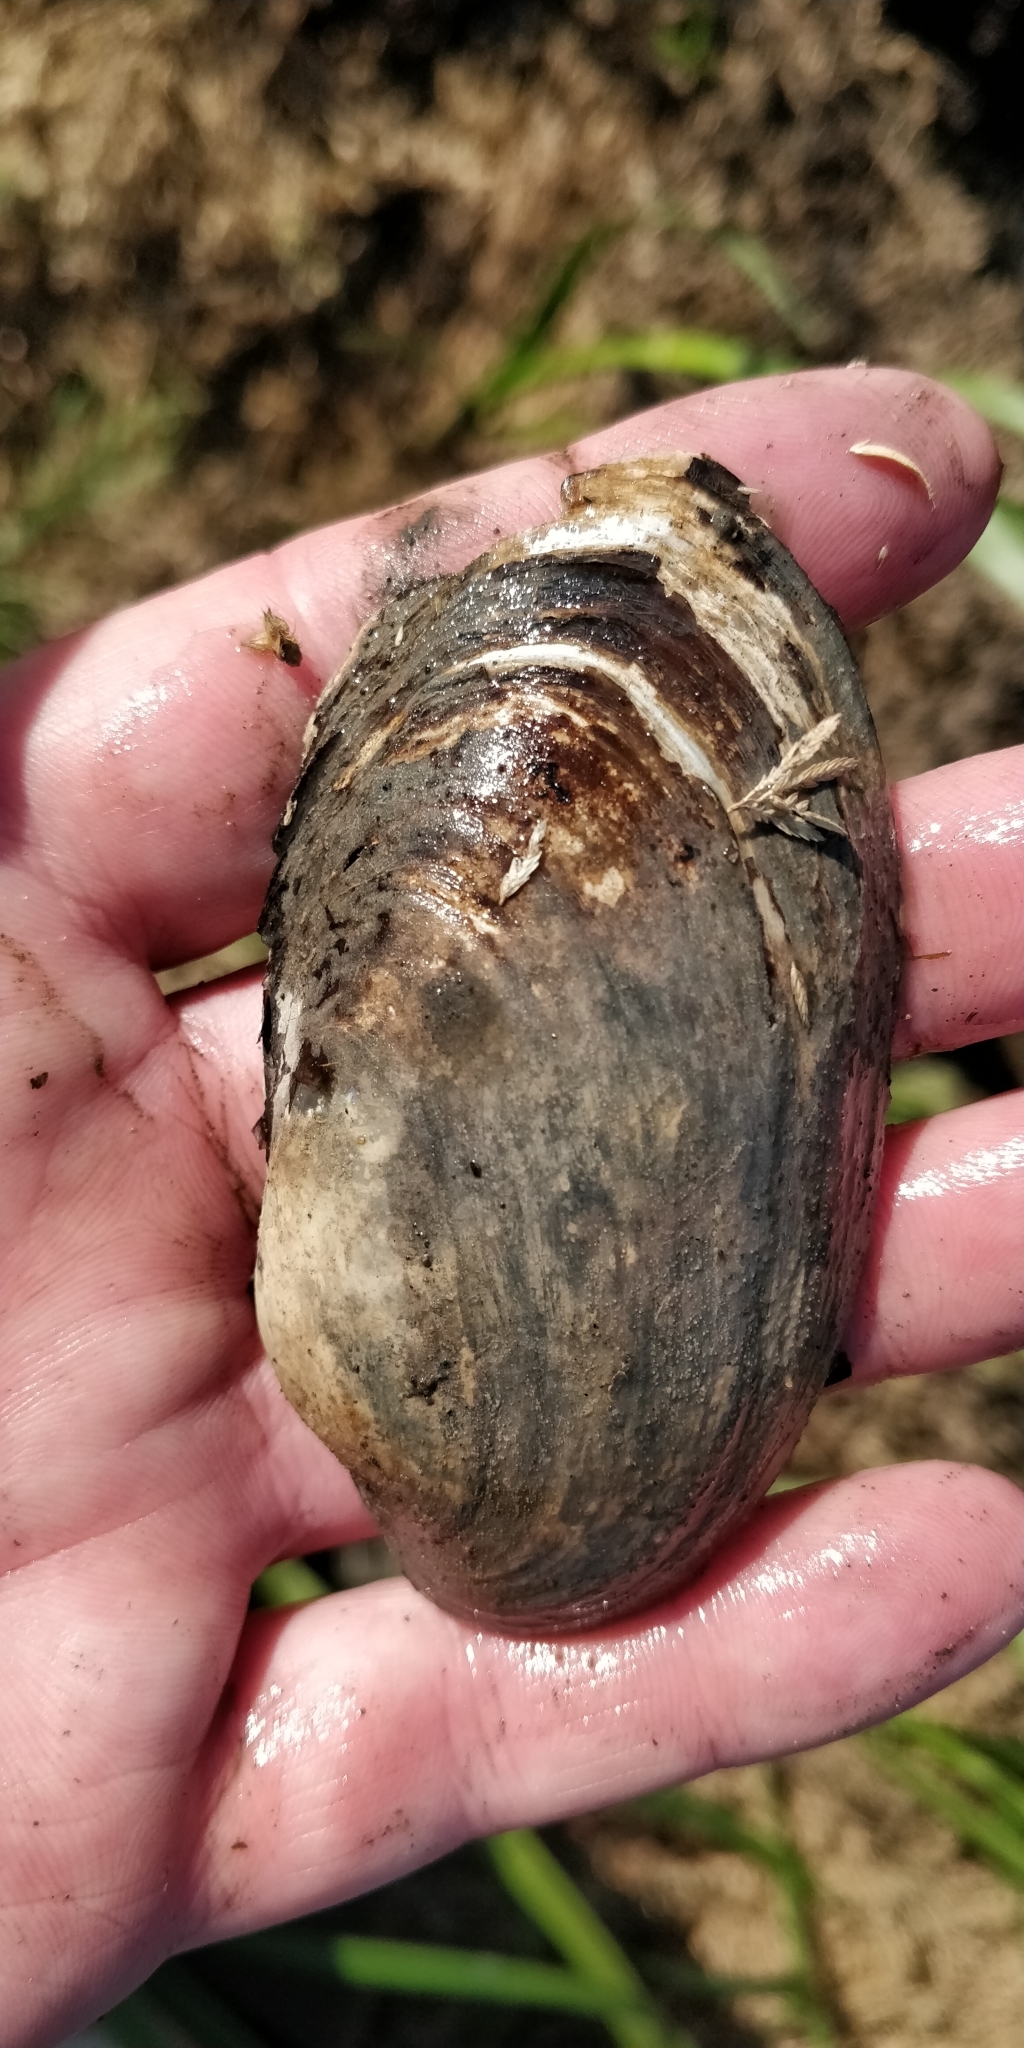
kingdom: Animalia
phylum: Mollusca
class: Bivalvia
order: Unionida
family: Unionidae
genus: Lampsilis
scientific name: Lampsilis siliquoidea
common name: Fatmucket
